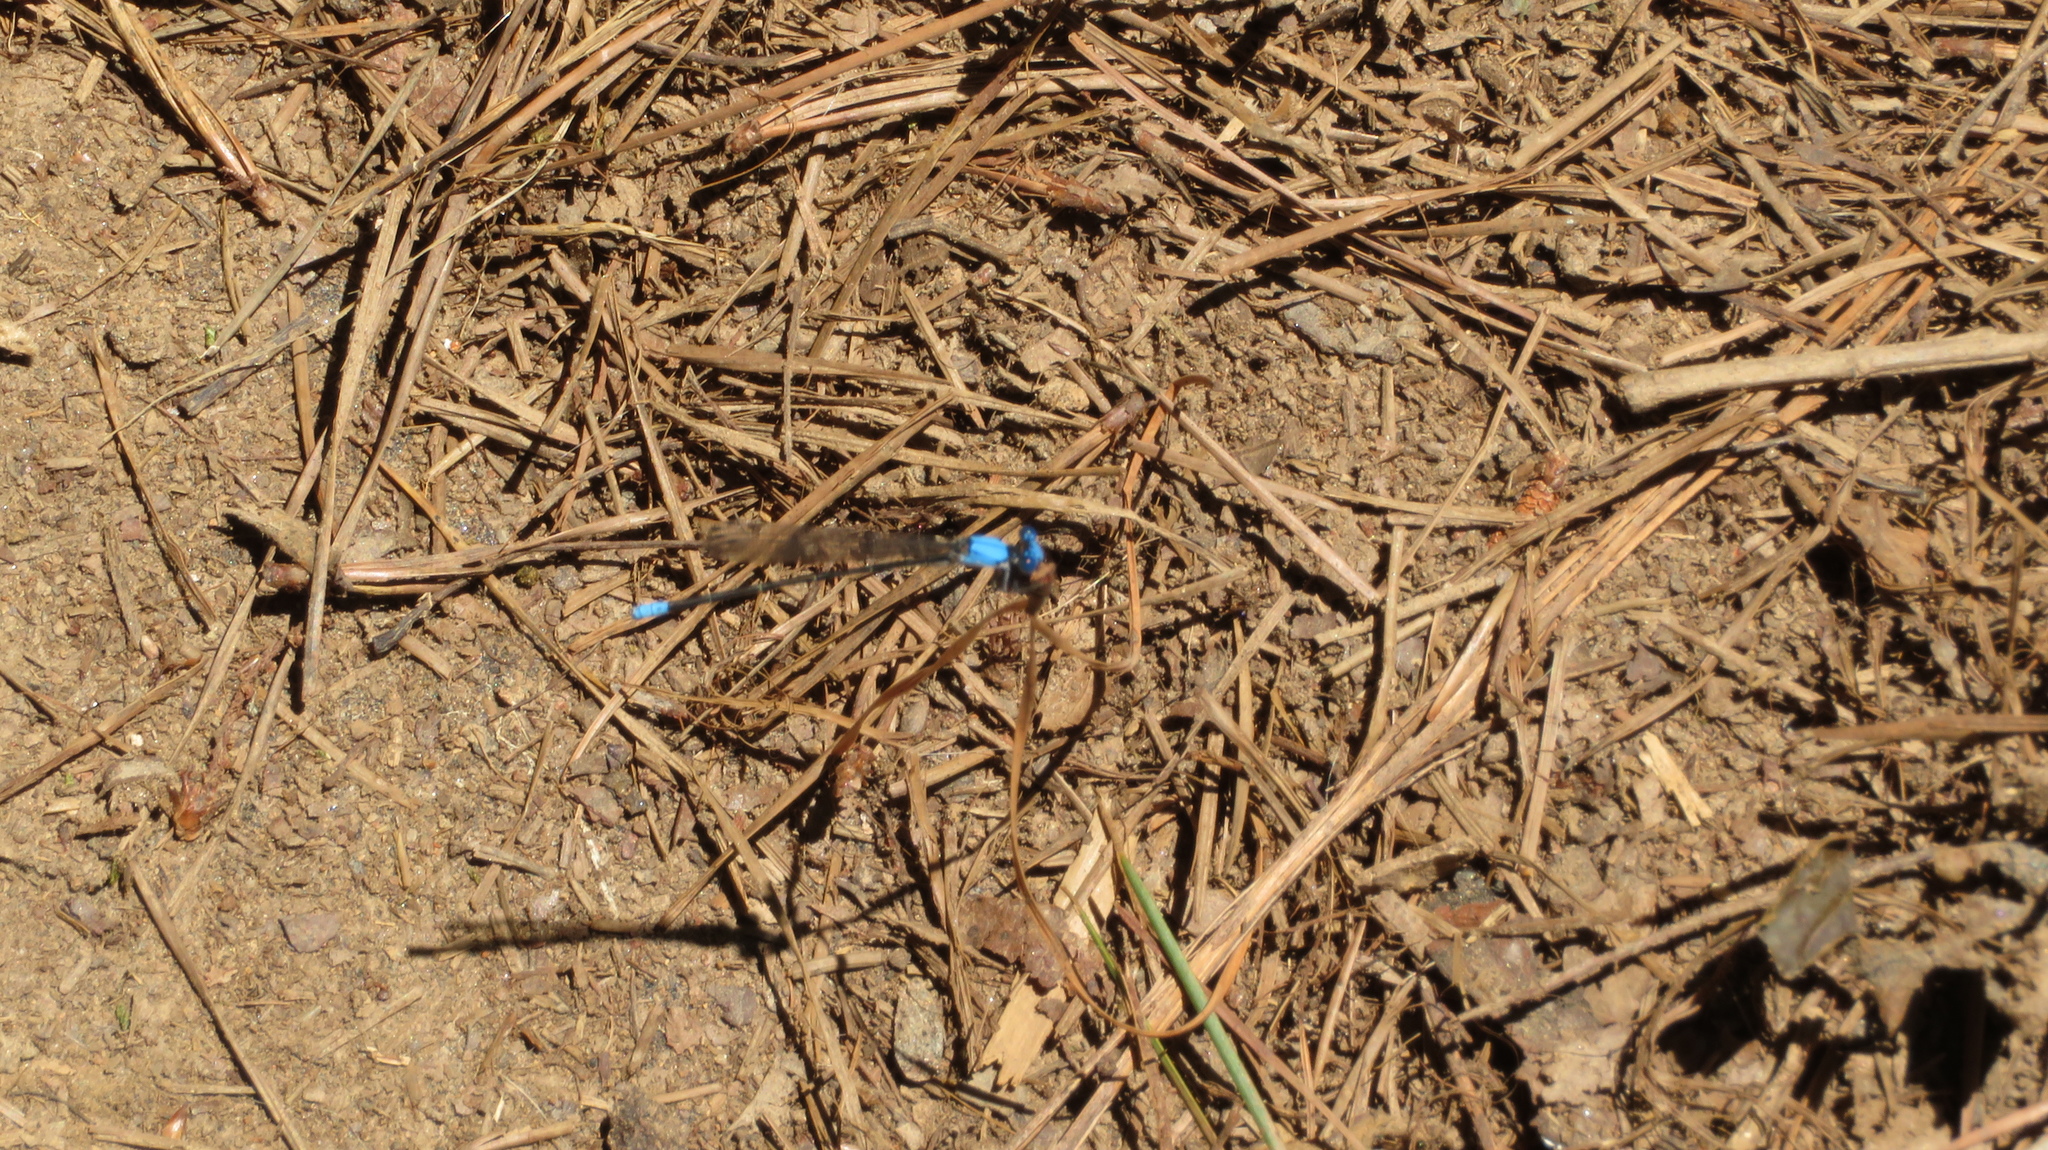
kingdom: Animalia
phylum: Arthropoda
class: Insecta
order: Odonata
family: Coenagrionidae
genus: Argia
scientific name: Argia apicalis
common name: Blue-fronted dancer
